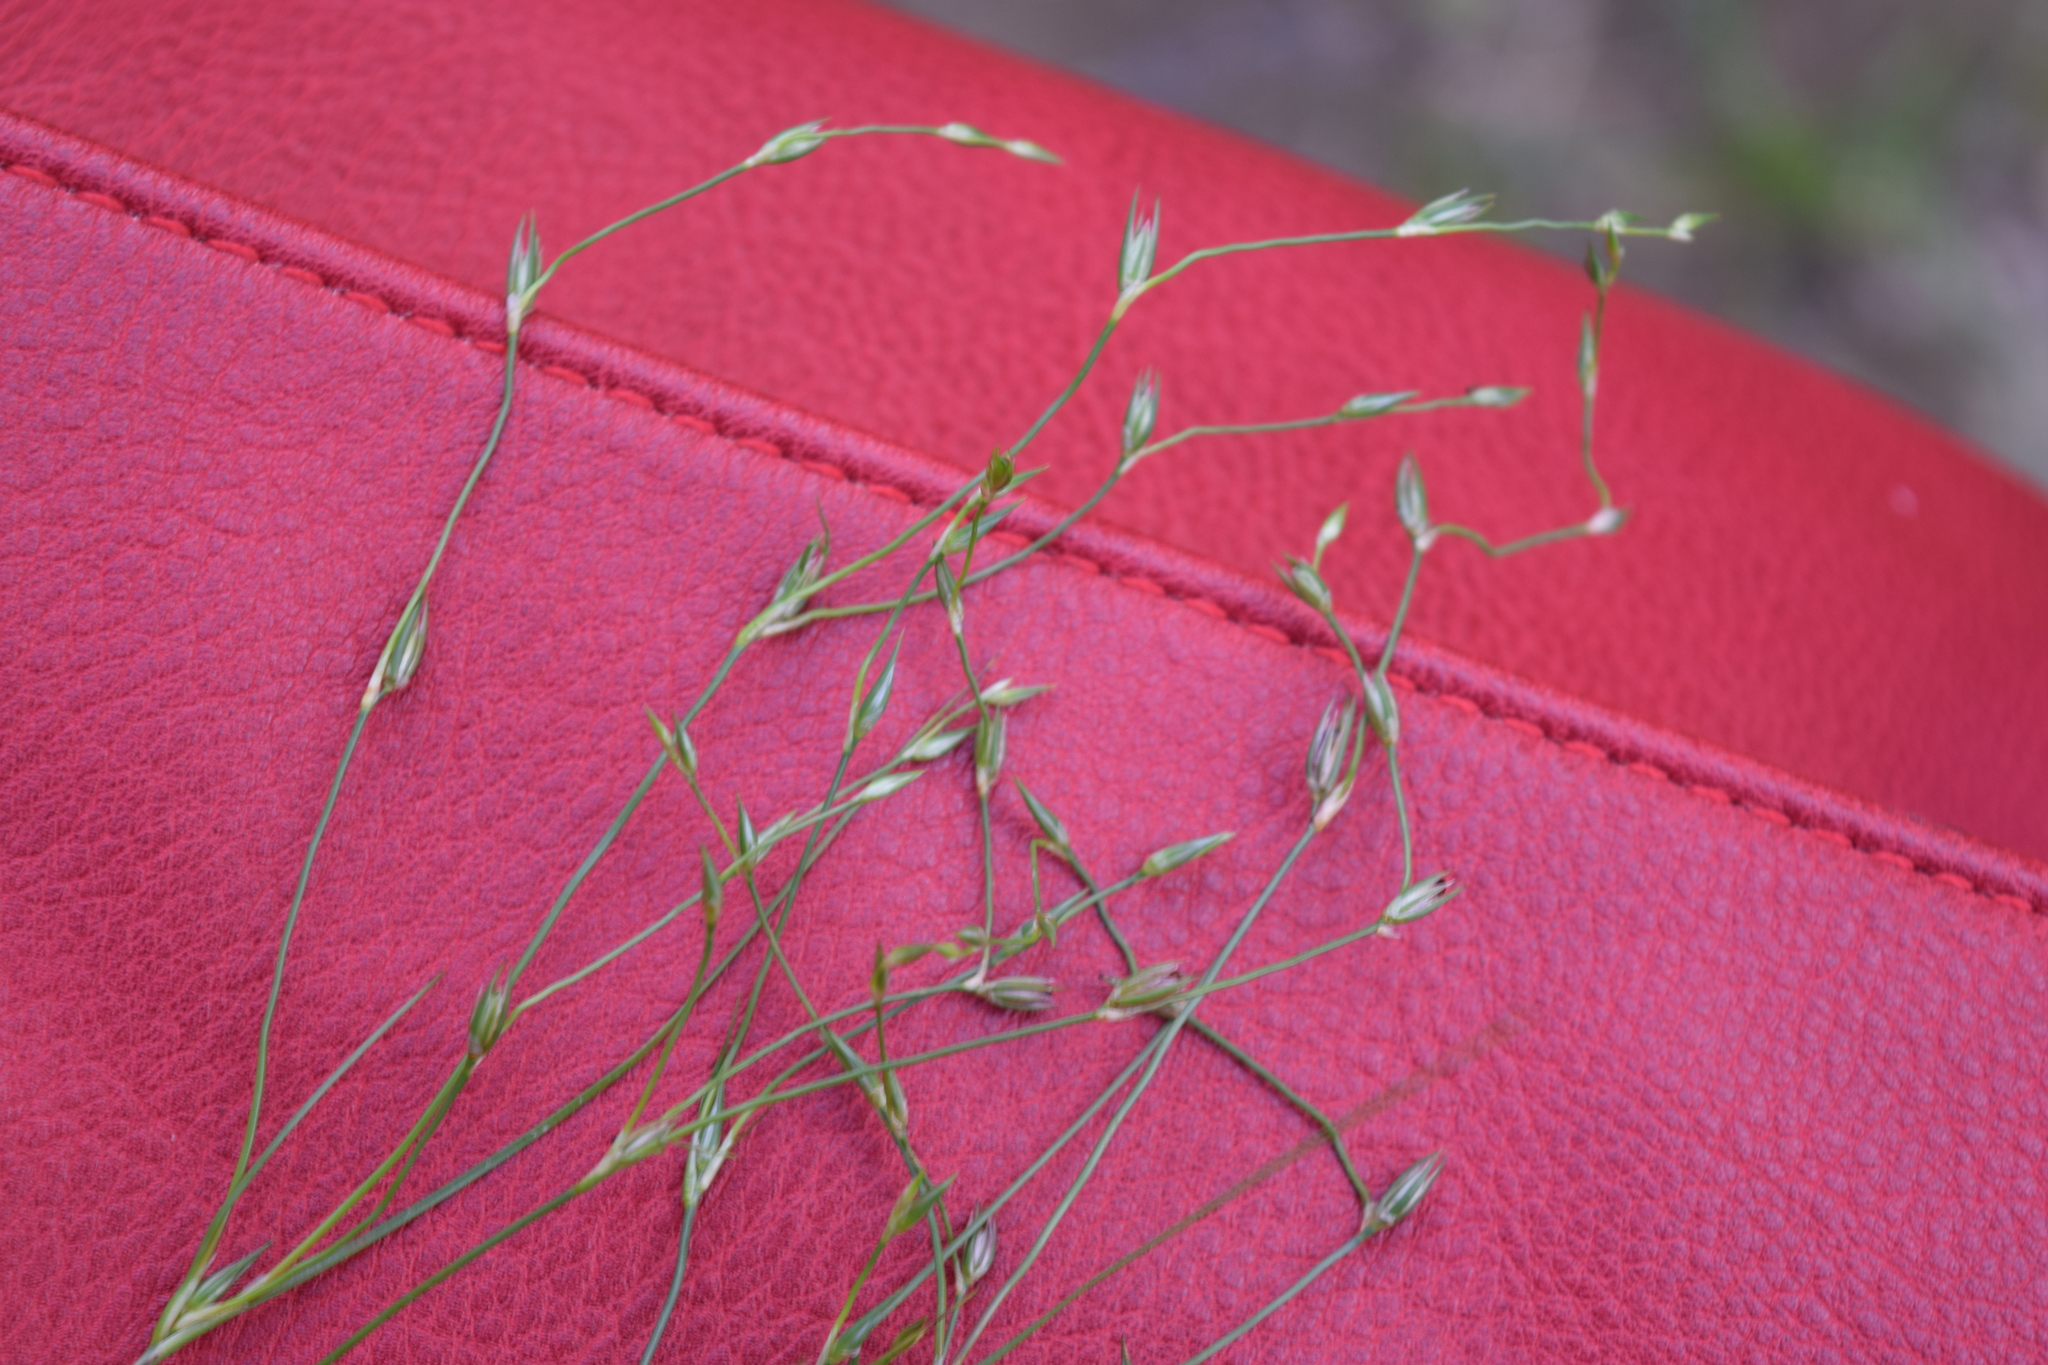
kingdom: Plantae
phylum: Tracheophyta
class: Liliopsida
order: Poales
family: Juncaceae
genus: Juncus
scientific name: Juncus bufonius
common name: Toad rush
